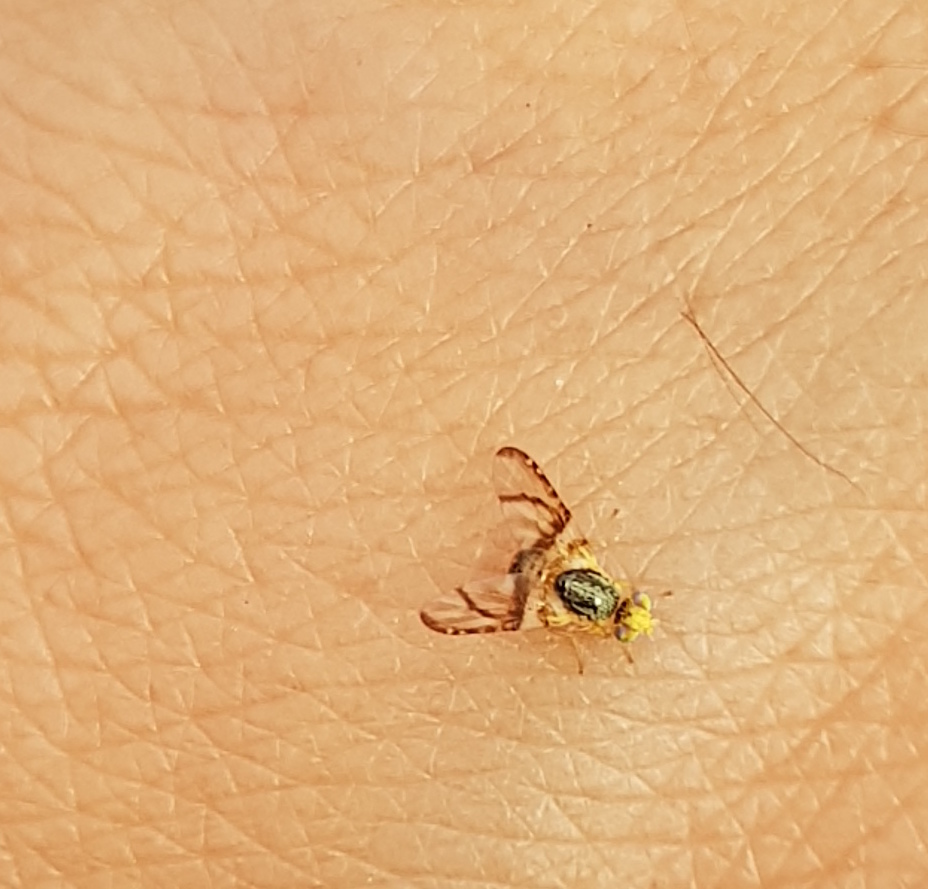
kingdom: Animalia
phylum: Arthropoda
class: Insecta
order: Diptera
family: Tephritidae
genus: Procecidocharoides
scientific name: Procecidocharoides pullata
